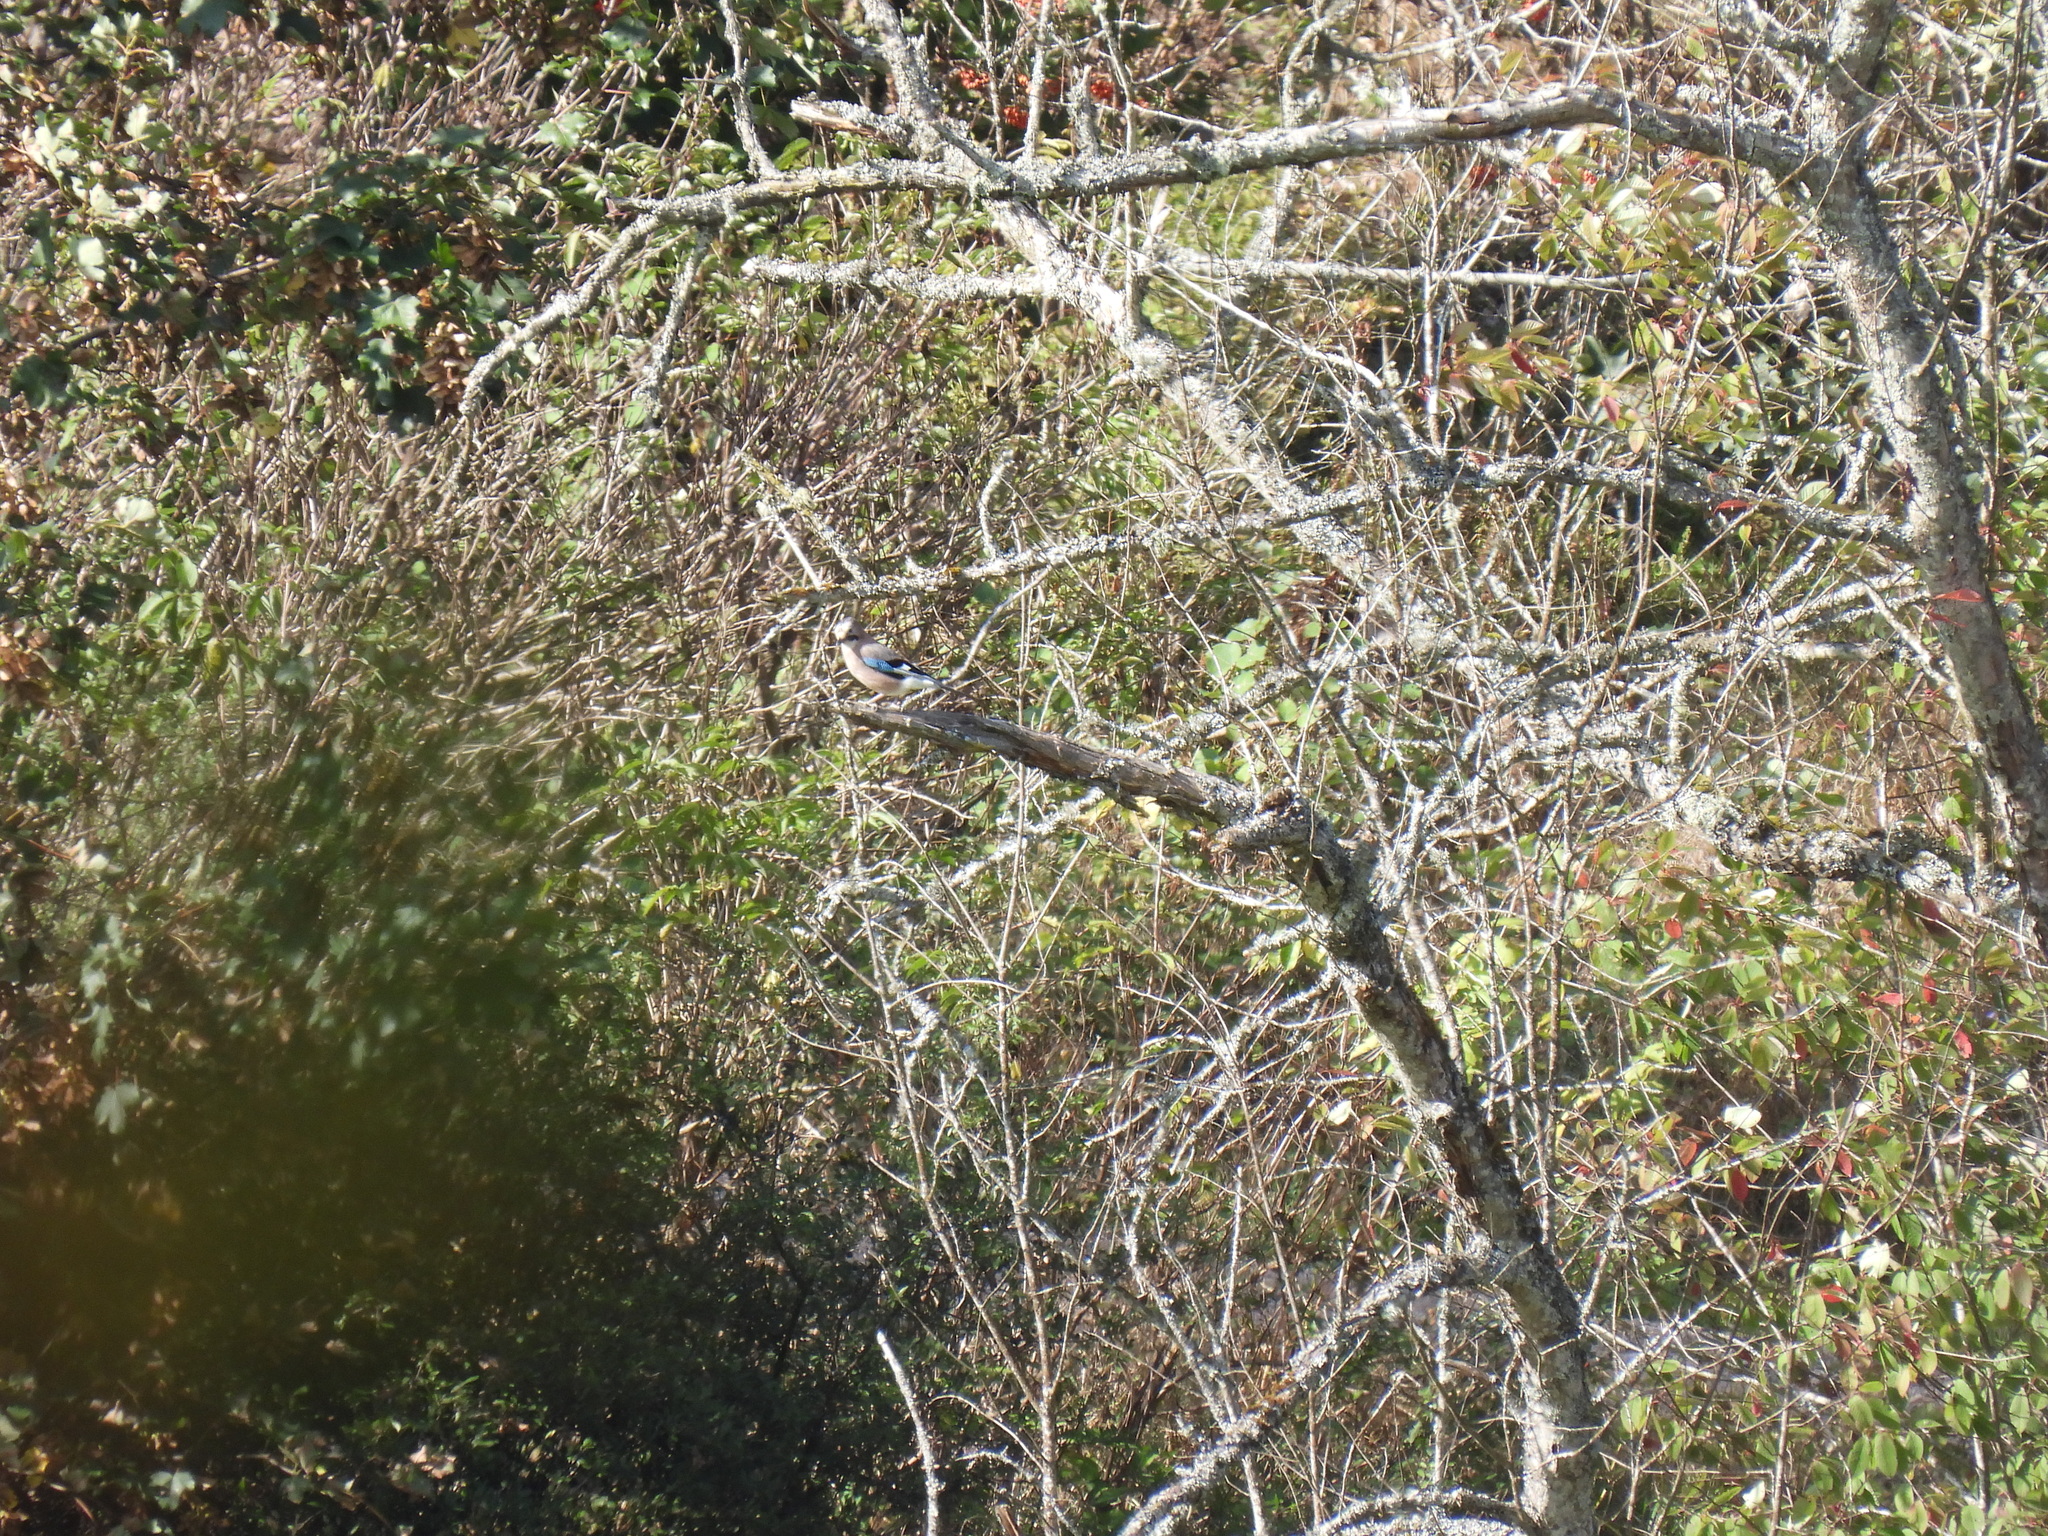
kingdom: Animalia
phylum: Chordata
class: Aves
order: Passeriformes
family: Corvidae
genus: Garrulus
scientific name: Garrulus glandarius
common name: Eurasian jay
